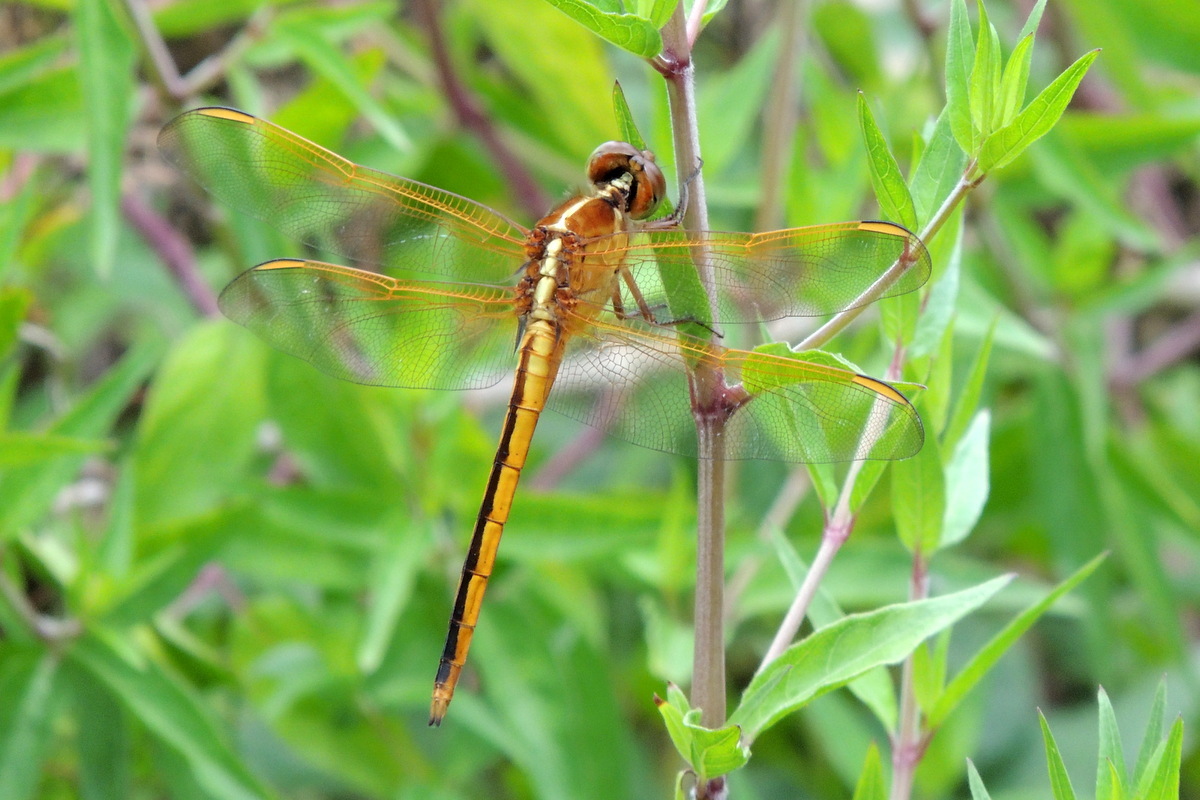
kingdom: Animalia
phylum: Arthropoda
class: Insecta
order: Odonata
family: Libellulidae
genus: Libellula
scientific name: Libellula needhami
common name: Needham's skimmer
